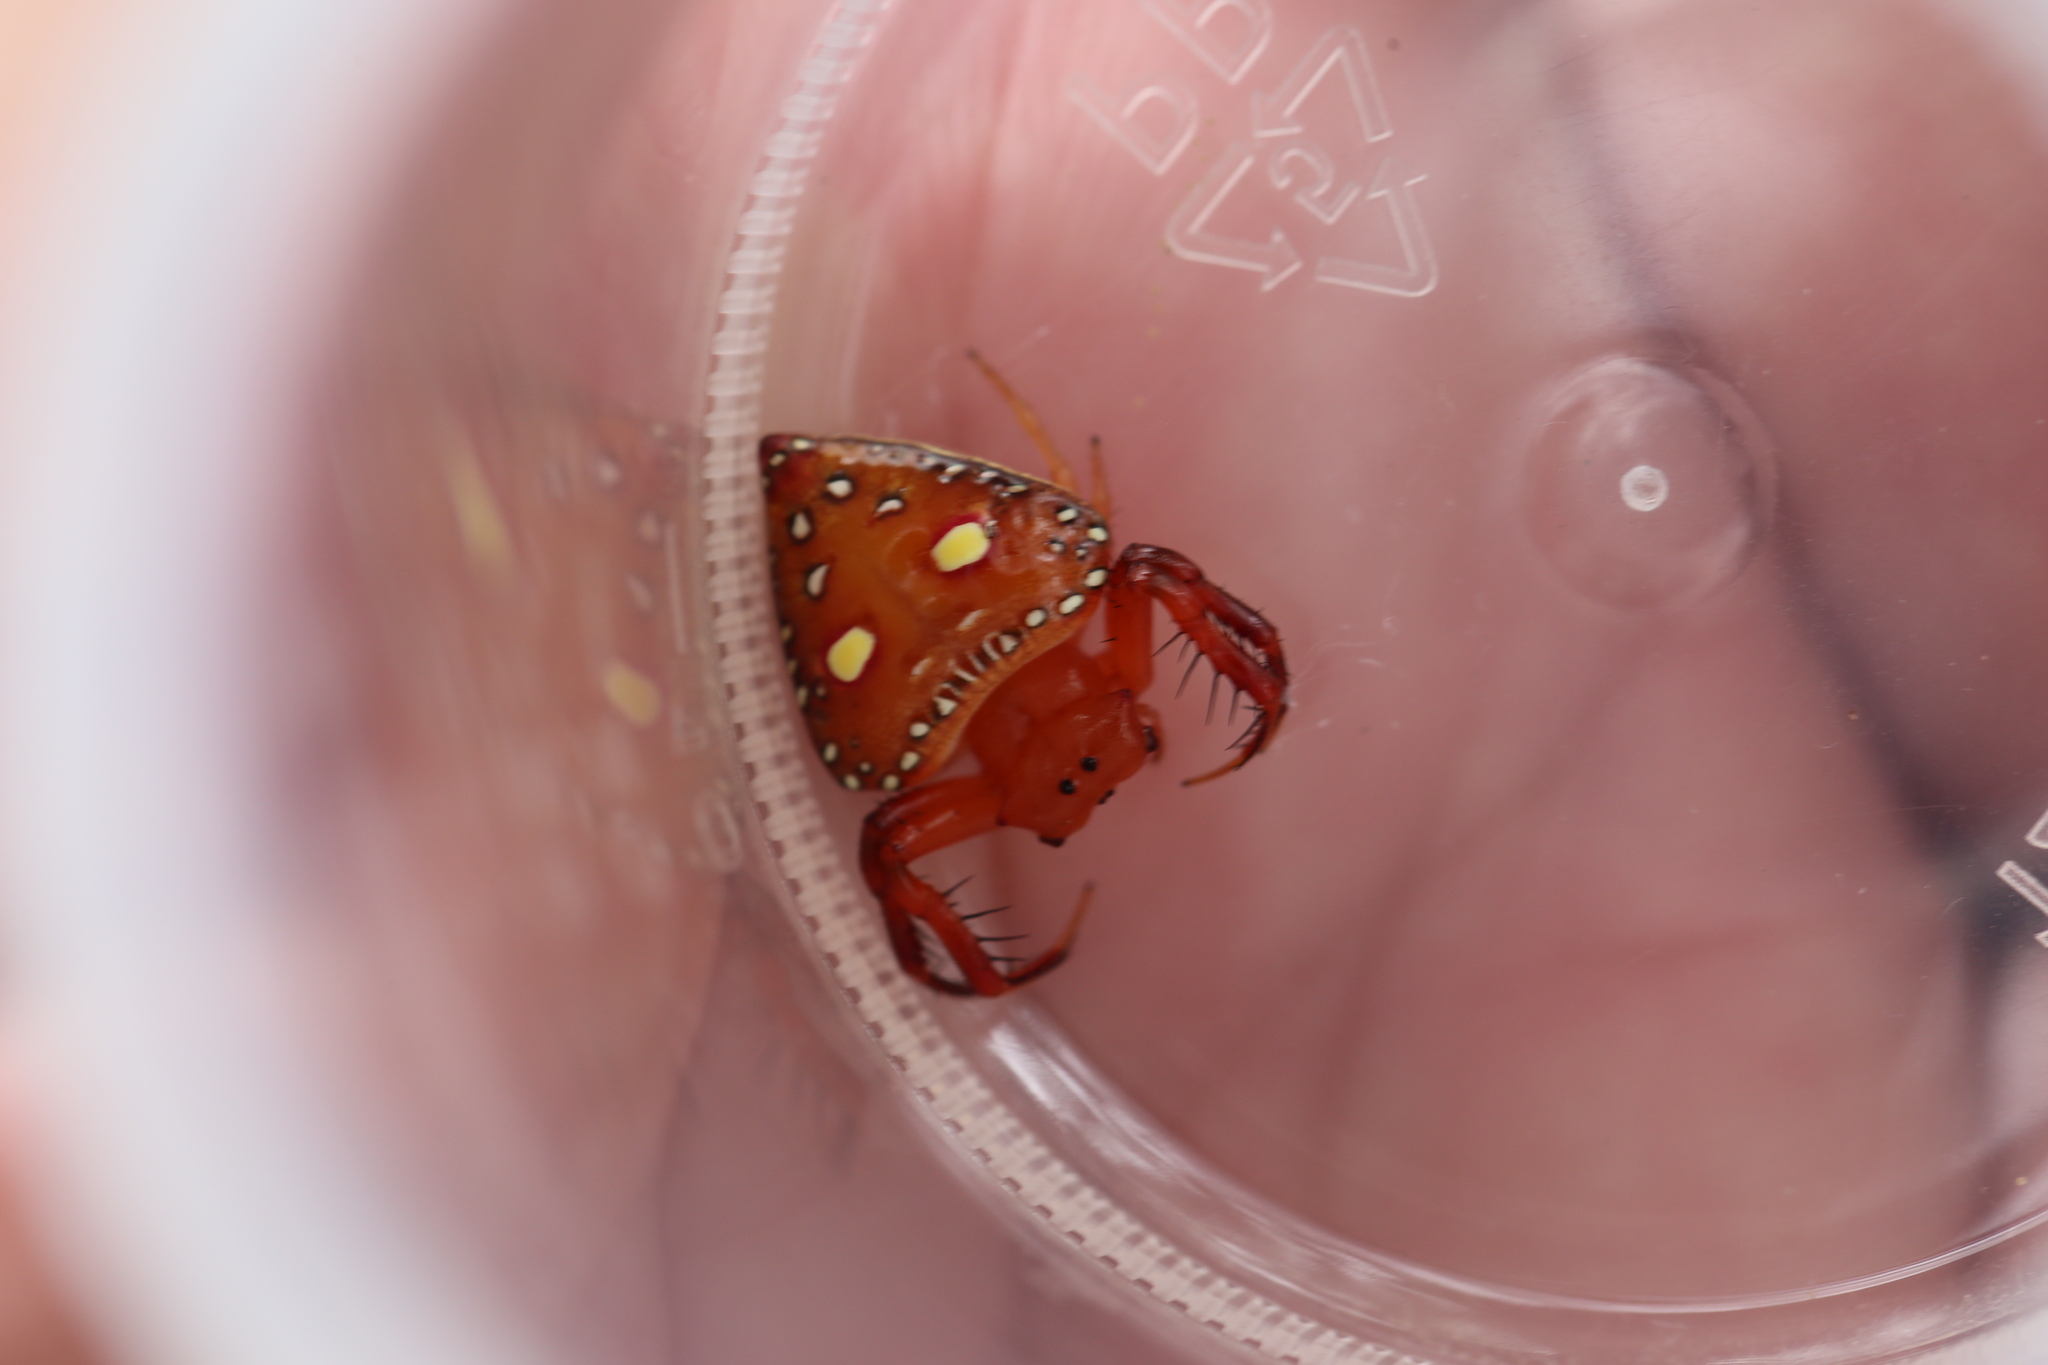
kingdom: Animalia
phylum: Arthropoda
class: Arachnida
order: Araneae
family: Arkyidae
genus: Arkys
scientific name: Arkys lancearius
